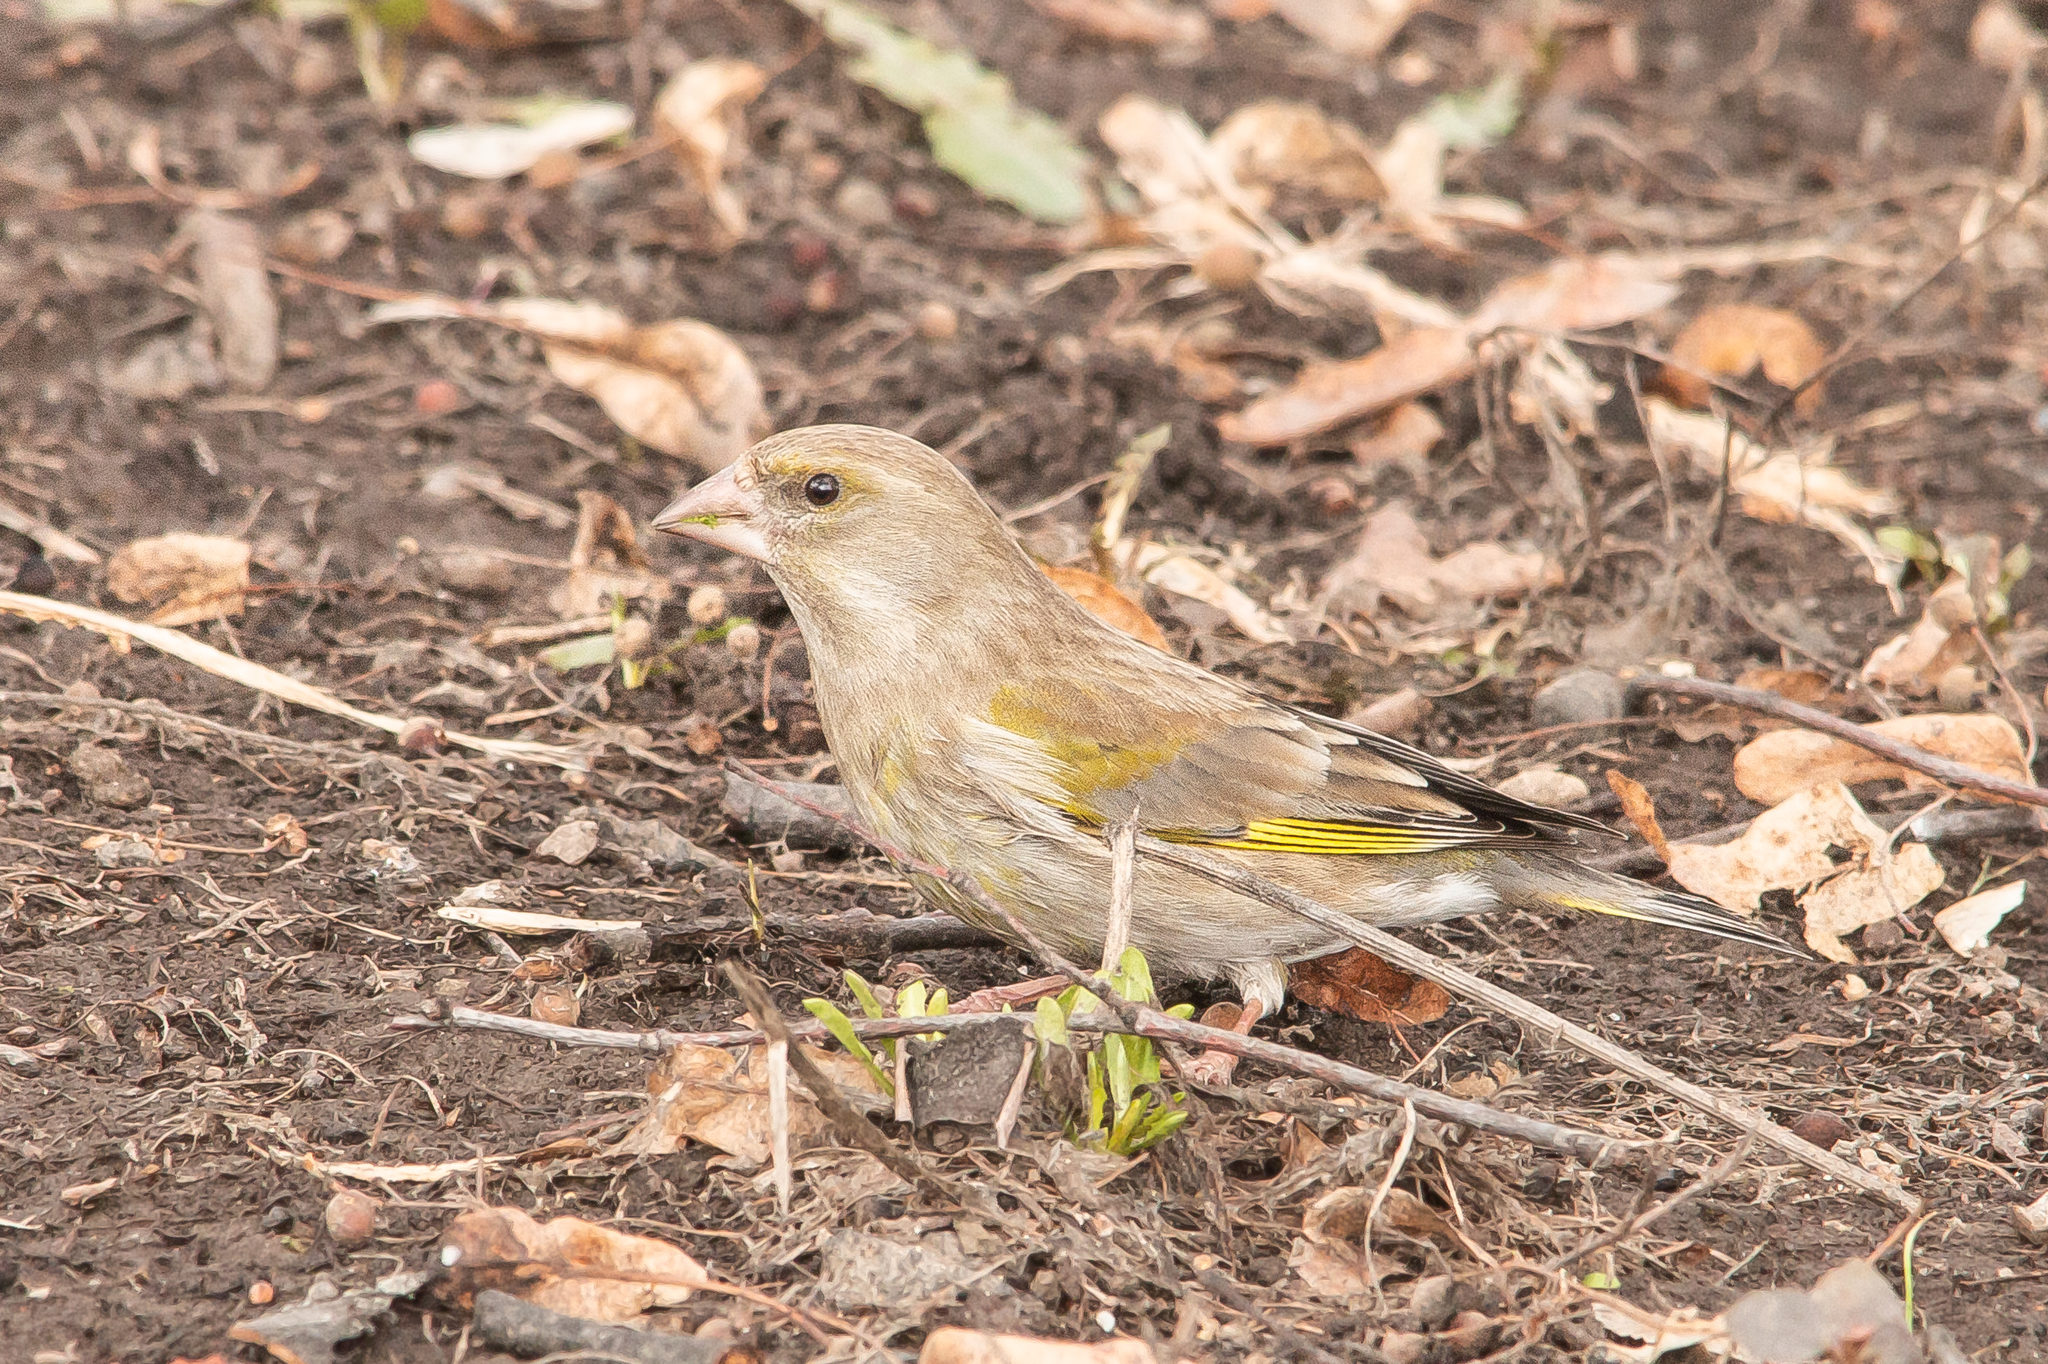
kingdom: Plantae
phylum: Tracheophyta
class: Liliopsida
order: Poales
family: Poaceae
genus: Chloris
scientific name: Chloris chloris
